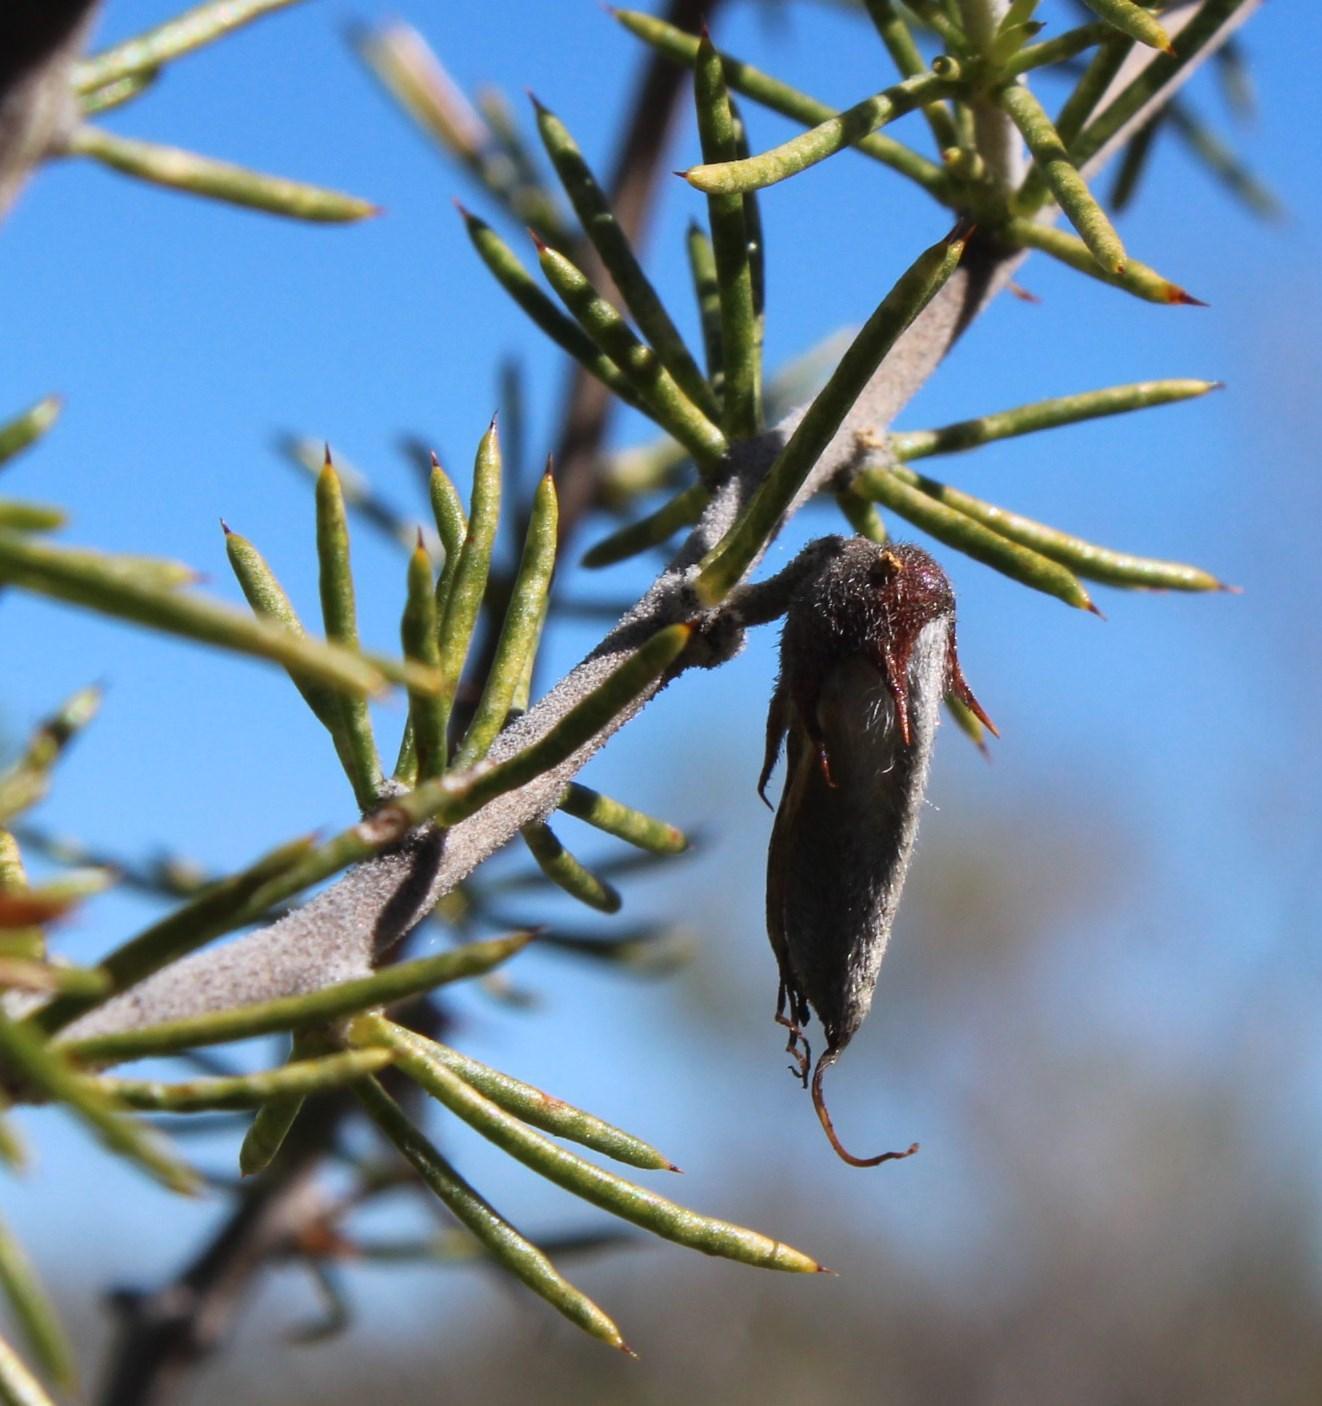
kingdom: Plantae
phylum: Tracheophyta
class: Magnoliopsida
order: Fabales
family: Fabaceae
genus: Aspalathus
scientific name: Aspalathus hirta
